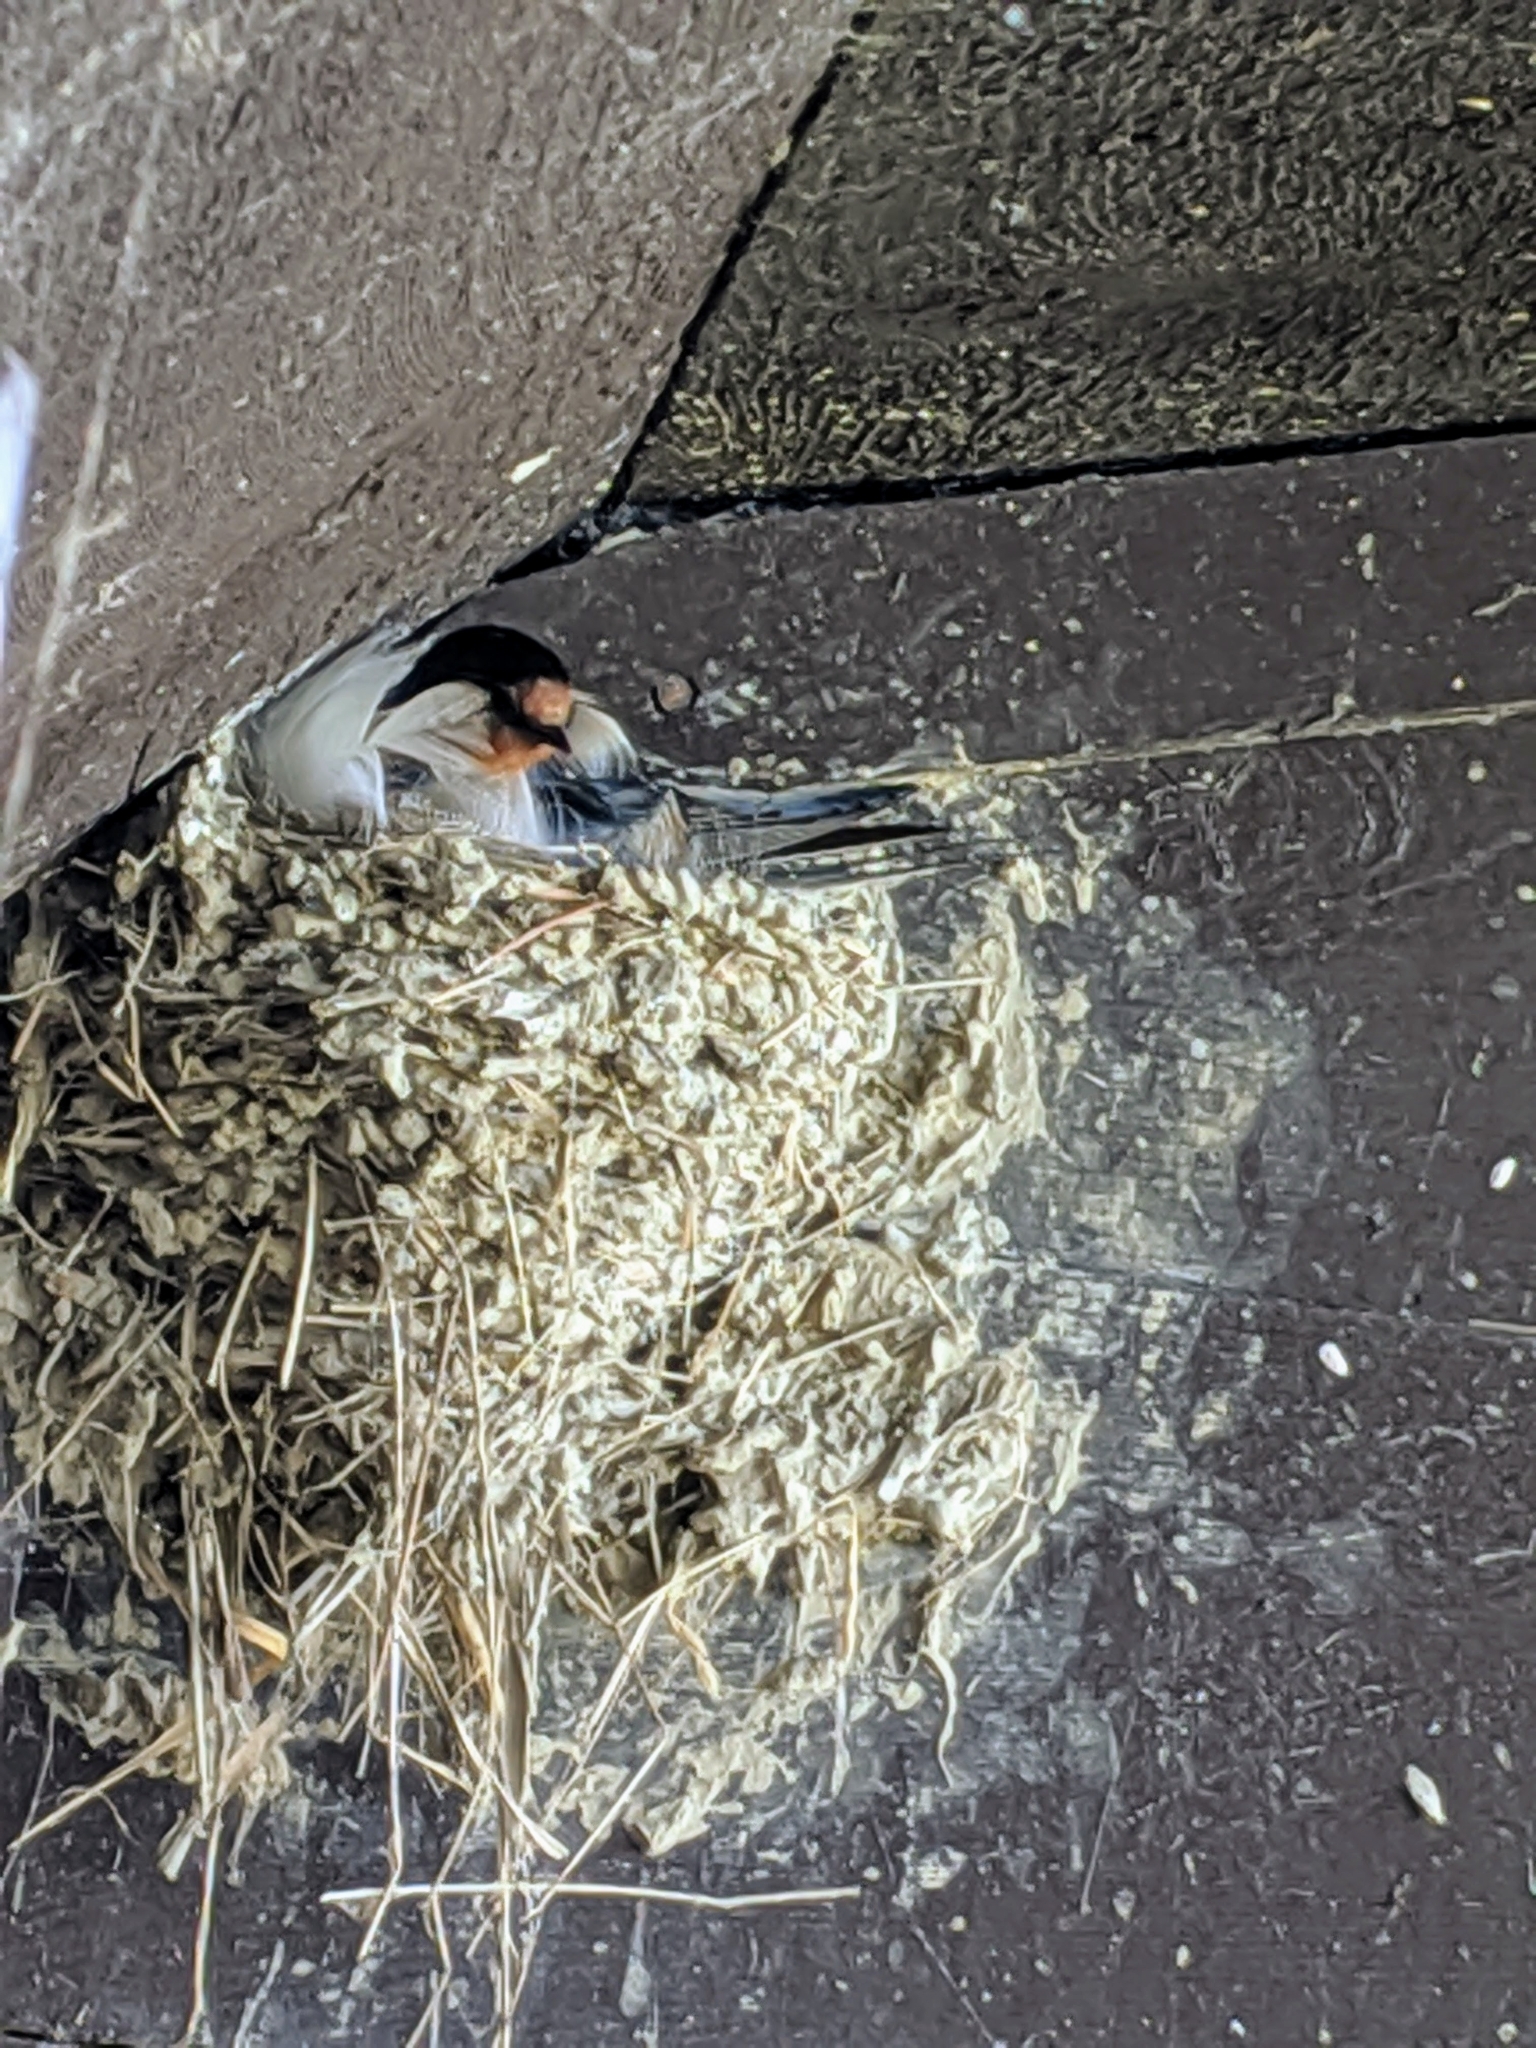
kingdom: Animalia
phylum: Chordata
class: Aves
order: Passeriformes
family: Hirundinidae
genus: Hirundo
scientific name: Hirundo rustica
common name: Barn swallow
